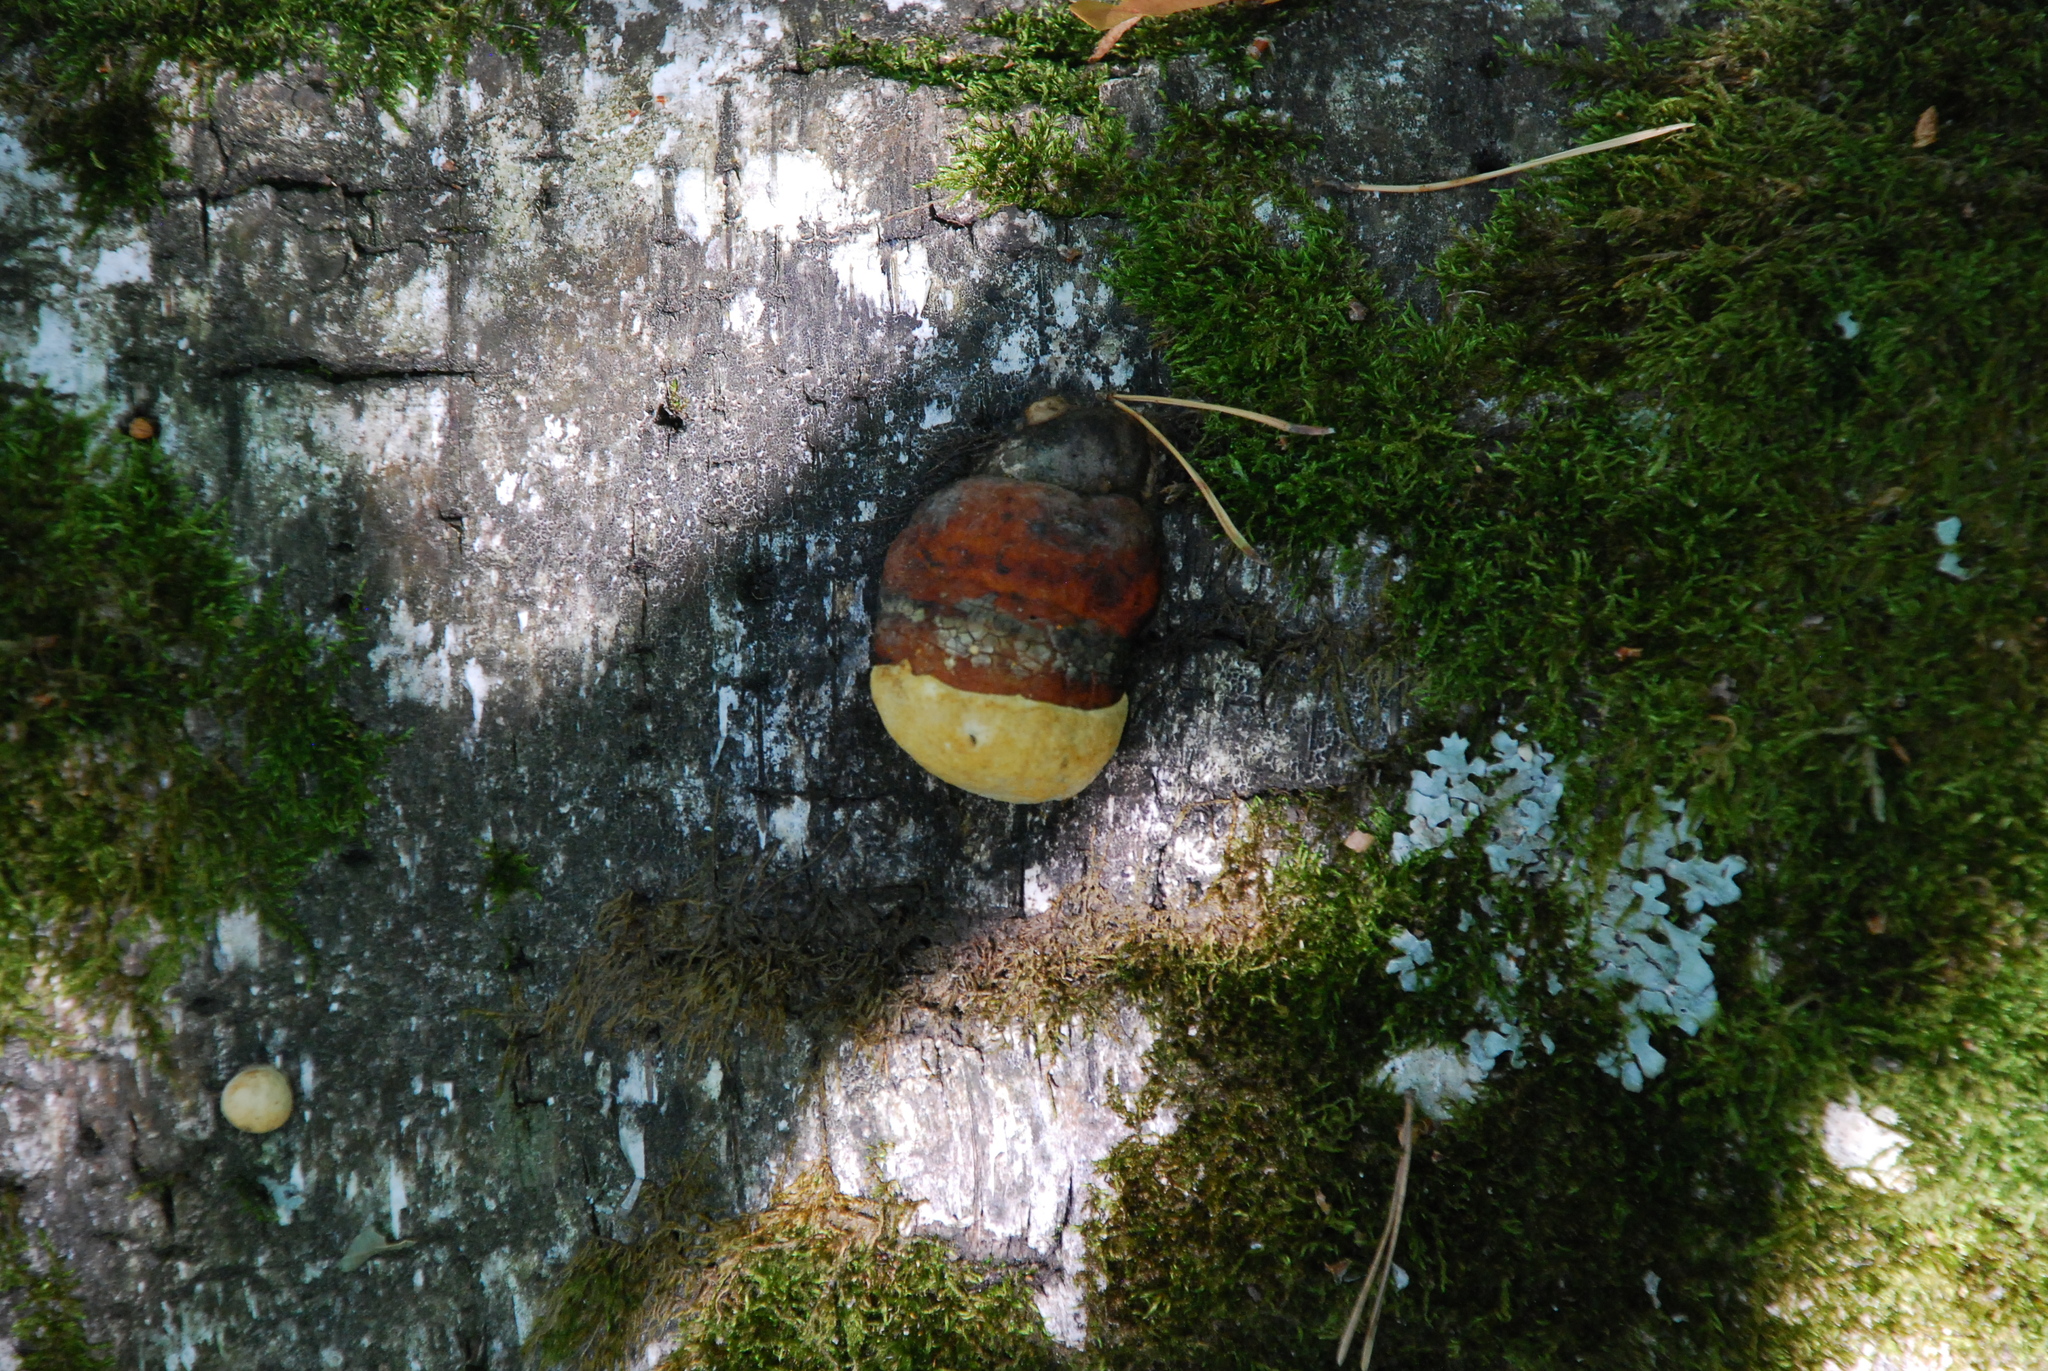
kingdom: Fungi
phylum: Basidiomycota
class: Agaricomycetes
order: Polyporales
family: Fomitopsidaceae
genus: Fomitopsis
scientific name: Fomitopsis pinicola
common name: Red-belted bracket
